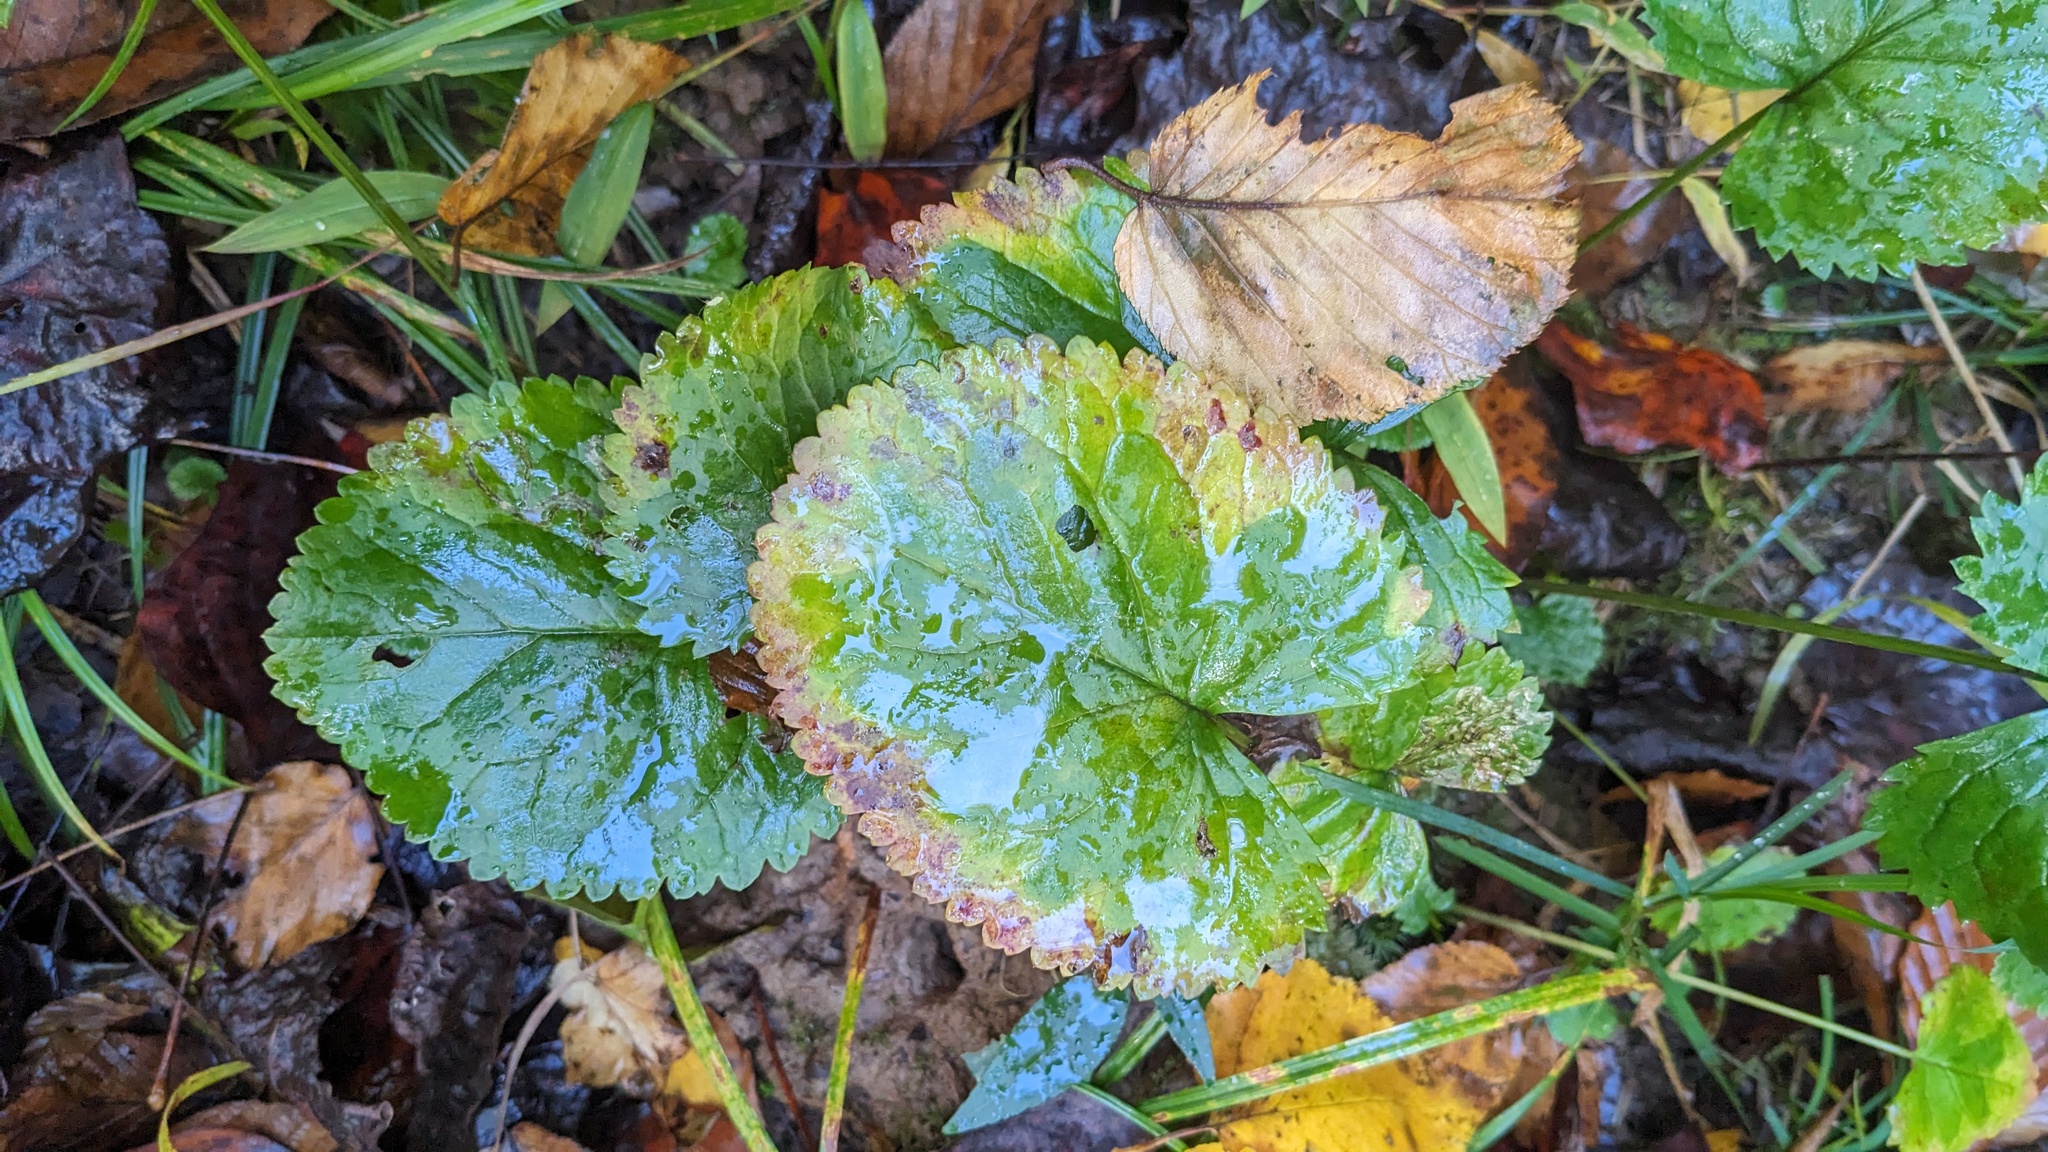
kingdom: Plantae
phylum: Tracheophyta
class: Magnoliopsida
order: Asterales
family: Asteraceae
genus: Packera
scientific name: Packera aurea
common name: Golden groundsel
